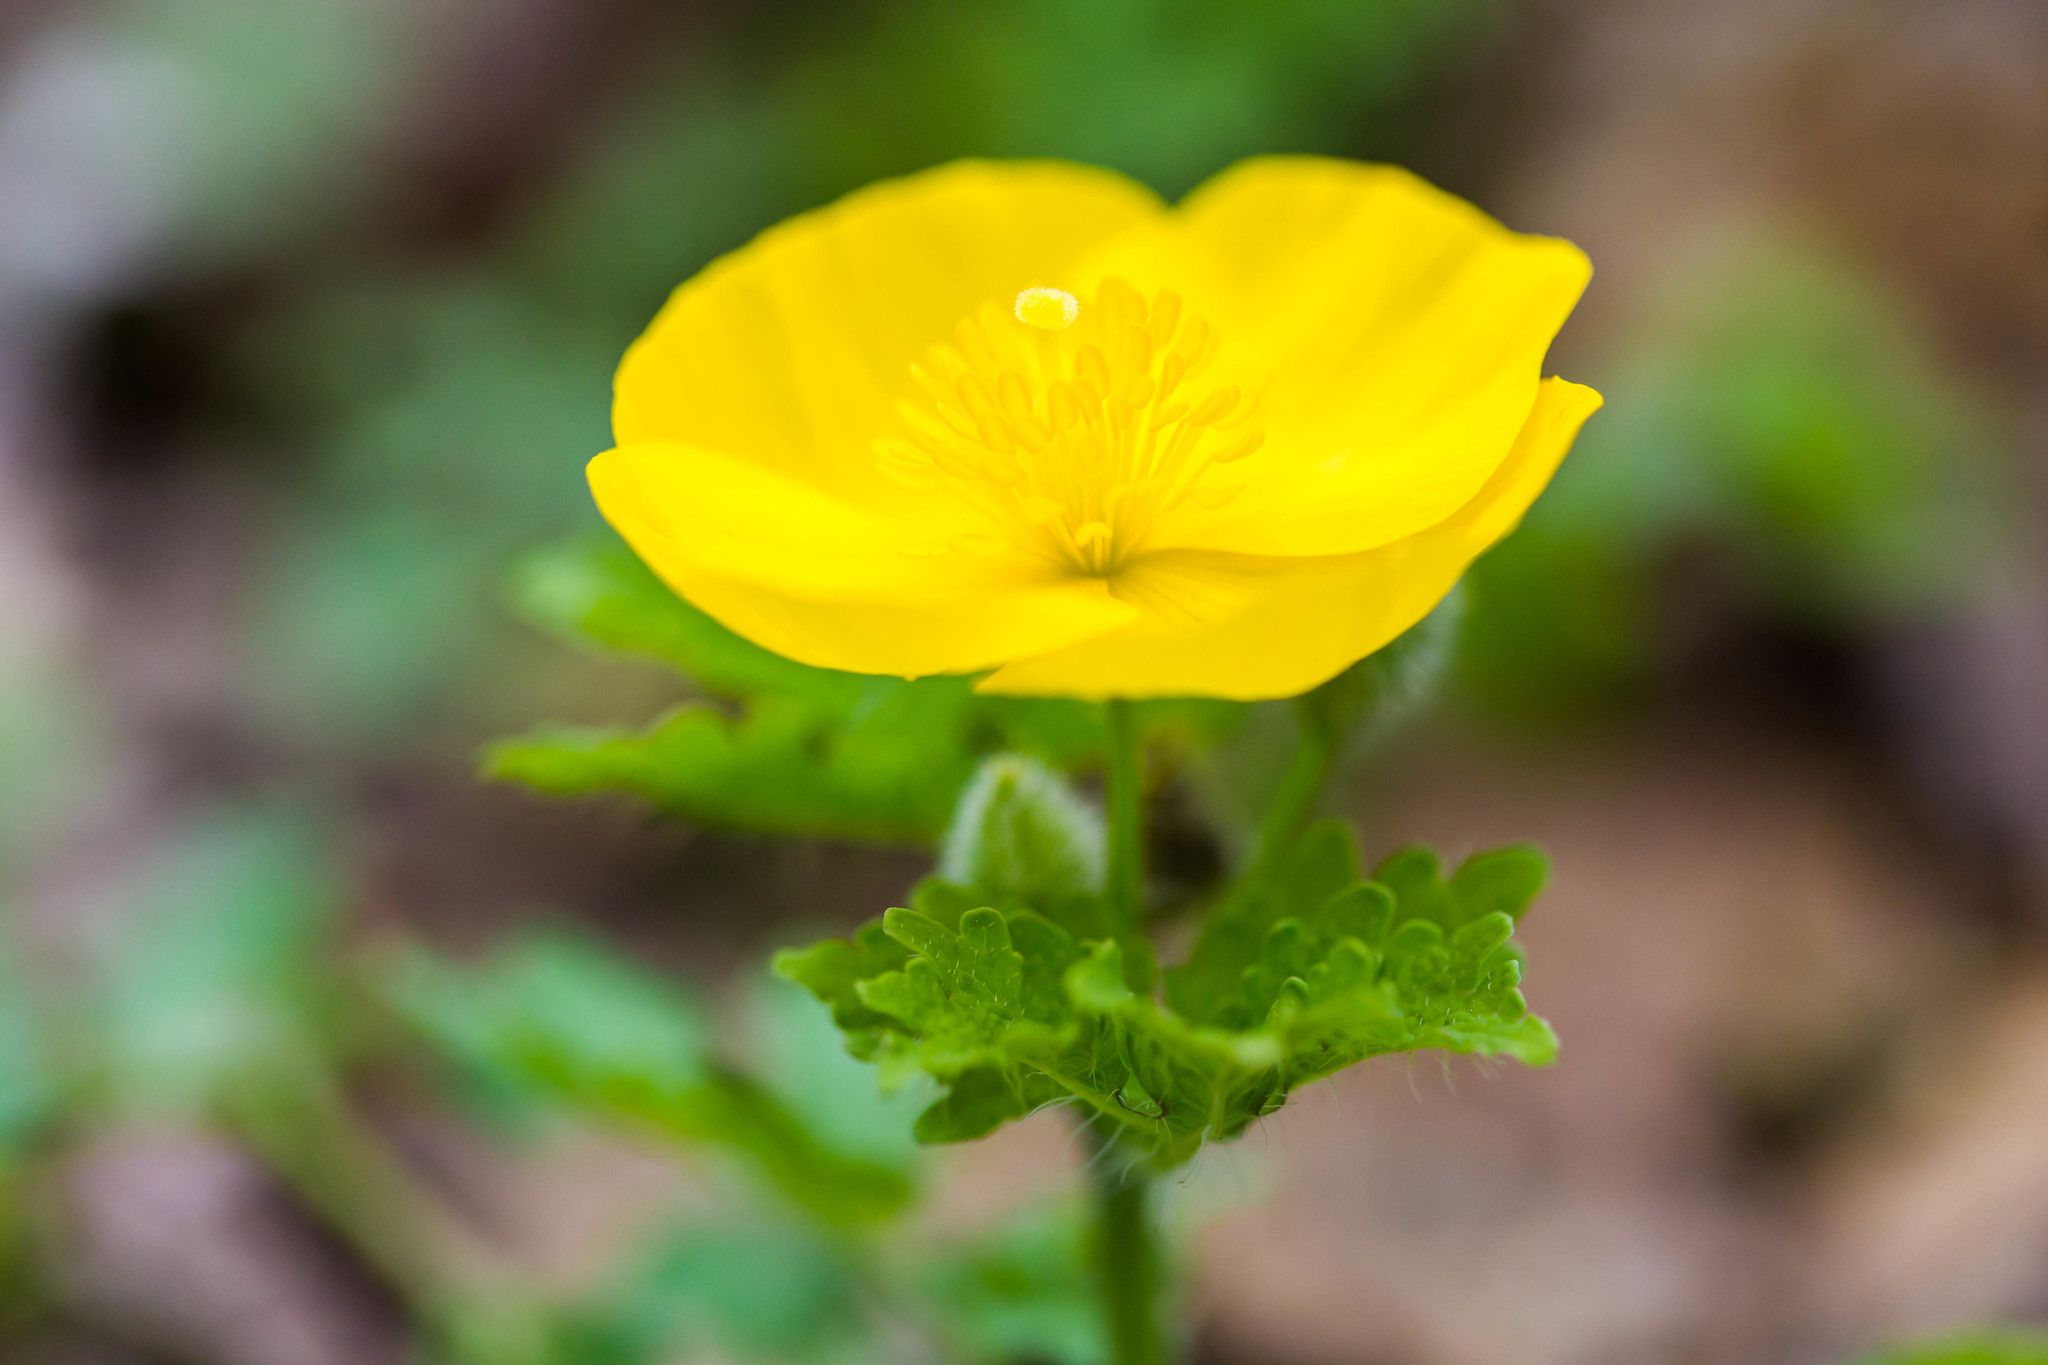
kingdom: Plantae
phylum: Tracheophyta
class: Magnoliopsida
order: Ranunculales
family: Papaveraceae
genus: Stylophorum
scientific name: Stylophorum diphyllum
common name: Celandine poppy
